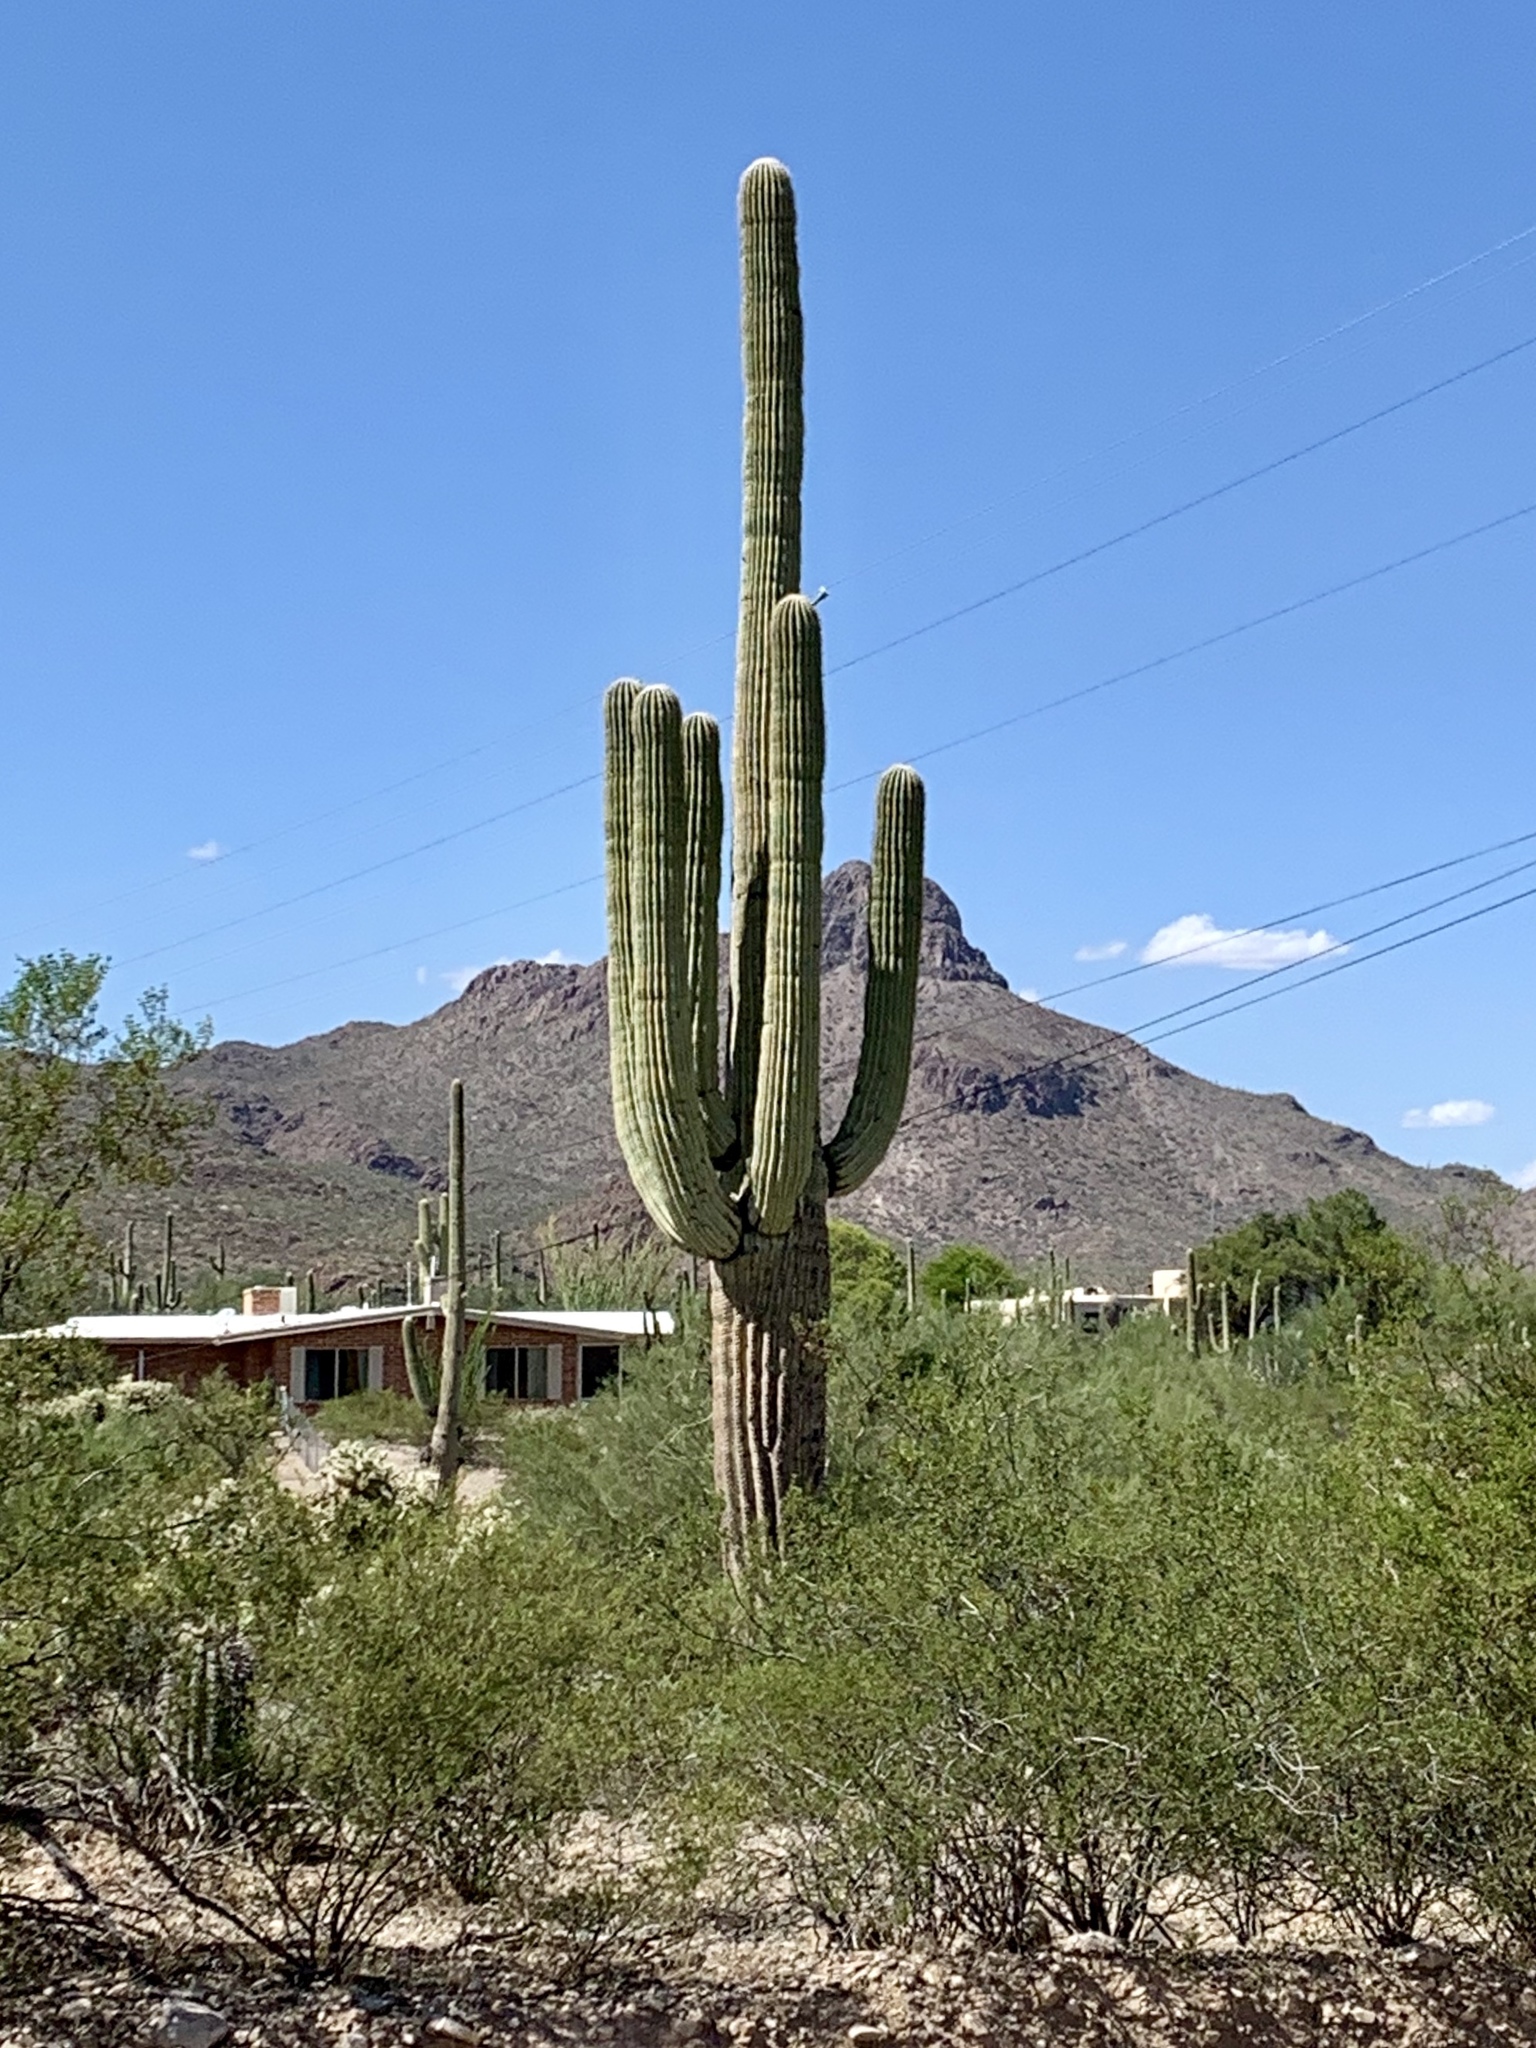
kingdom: Plantae
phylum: Tracheophyta
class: Magnoliopsida
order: Caryophyllales
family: Cactaceae
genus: Carnegiea
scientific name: Carnegiea gigantea
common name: Saguaro
